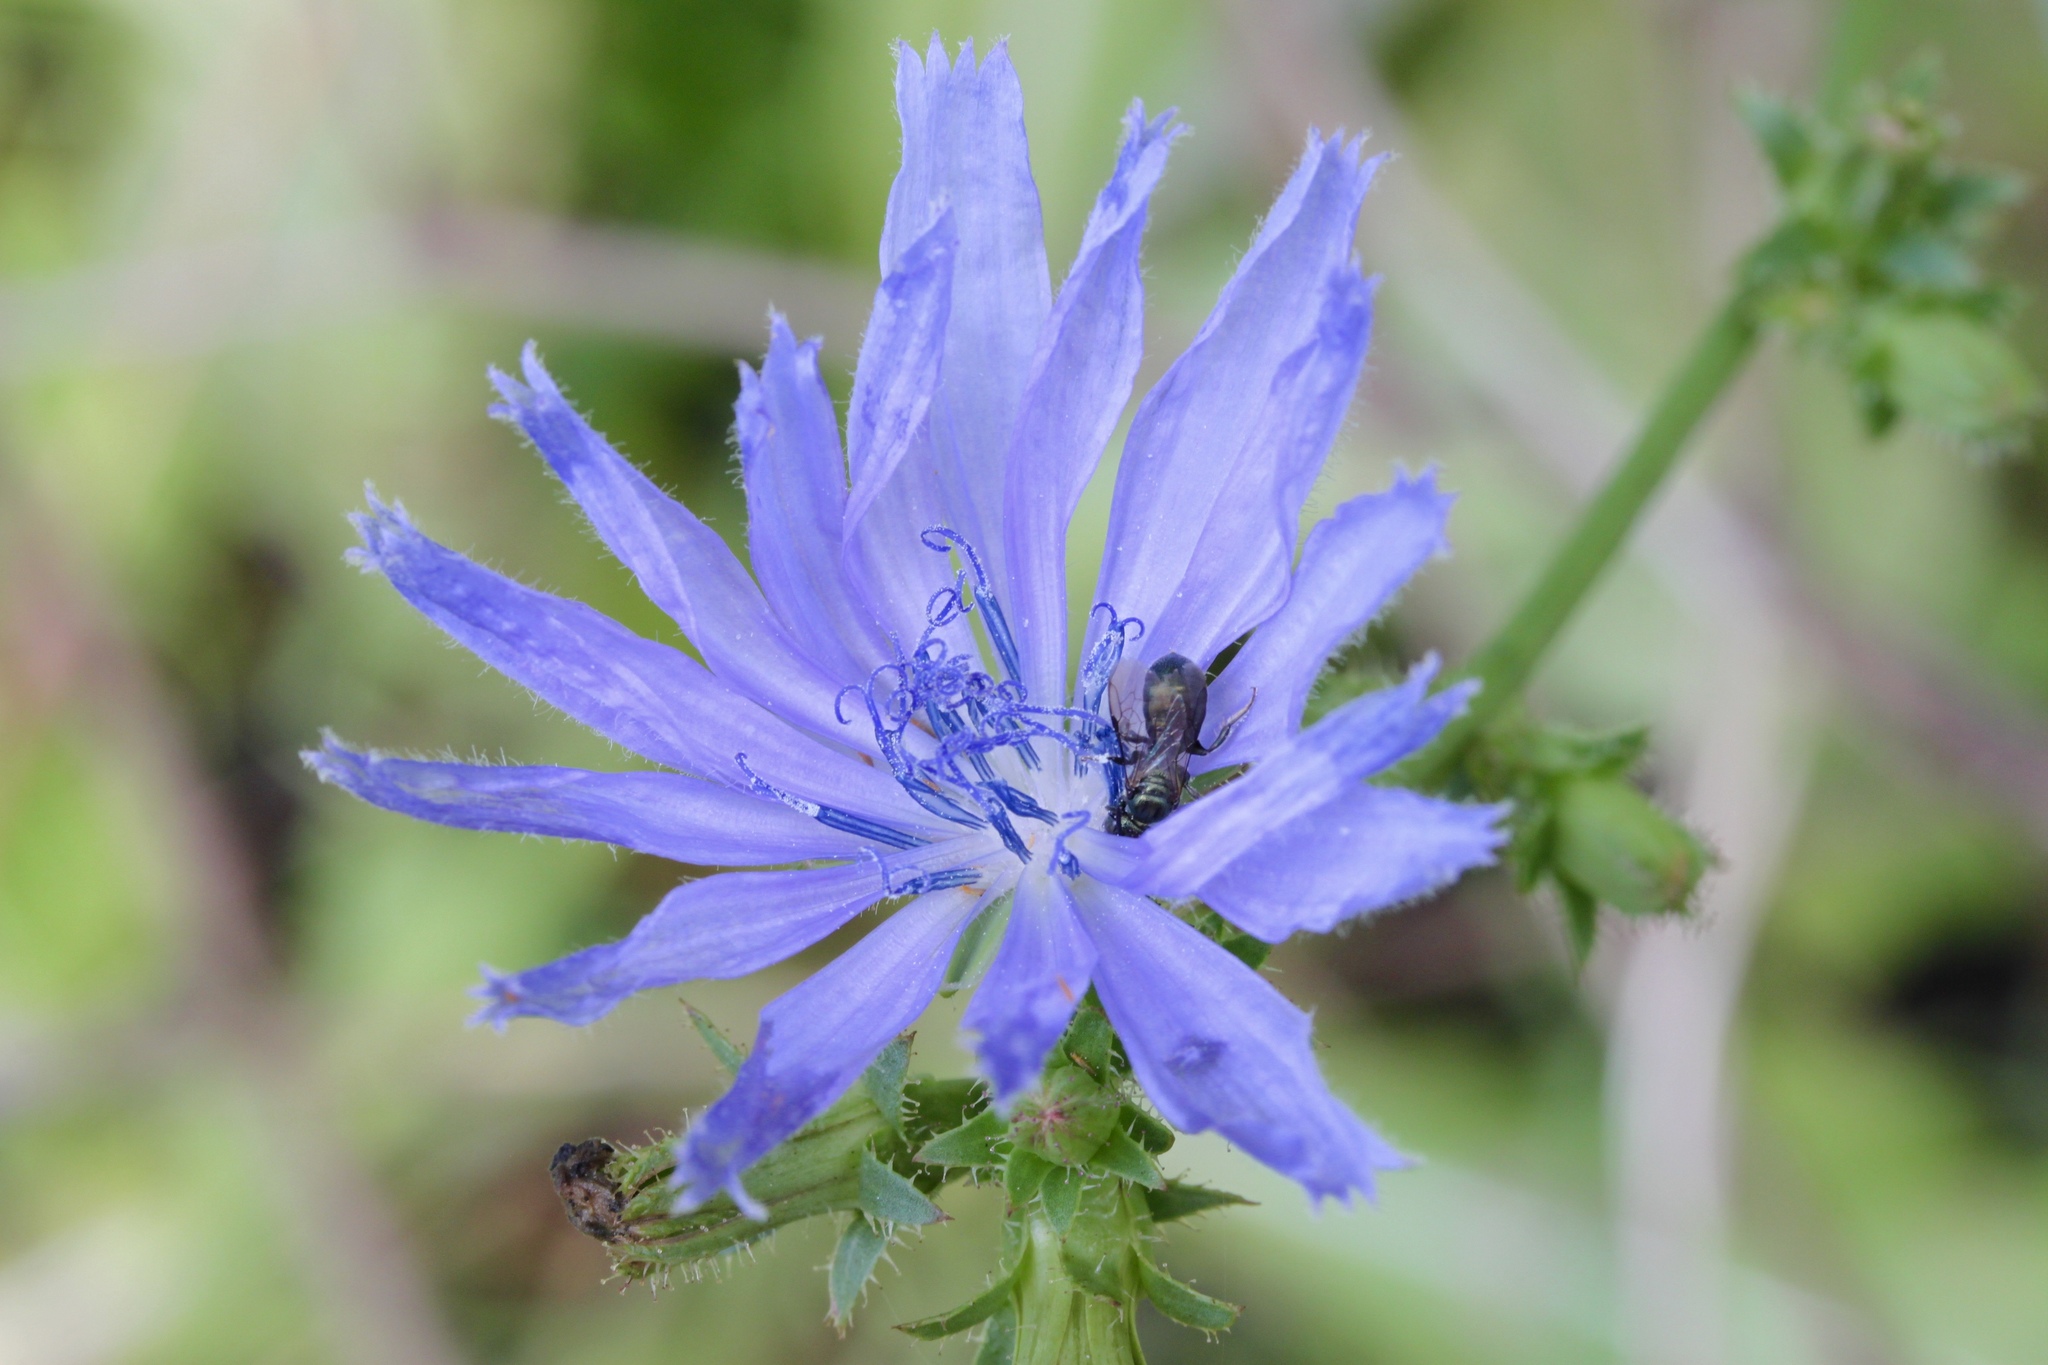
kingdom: Plantae
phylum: Tracheophyta
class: Magnoliopsida
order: Asterales
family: Asteraceae
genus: Cichorium
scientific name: Cichorium intybus
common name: Chicory
